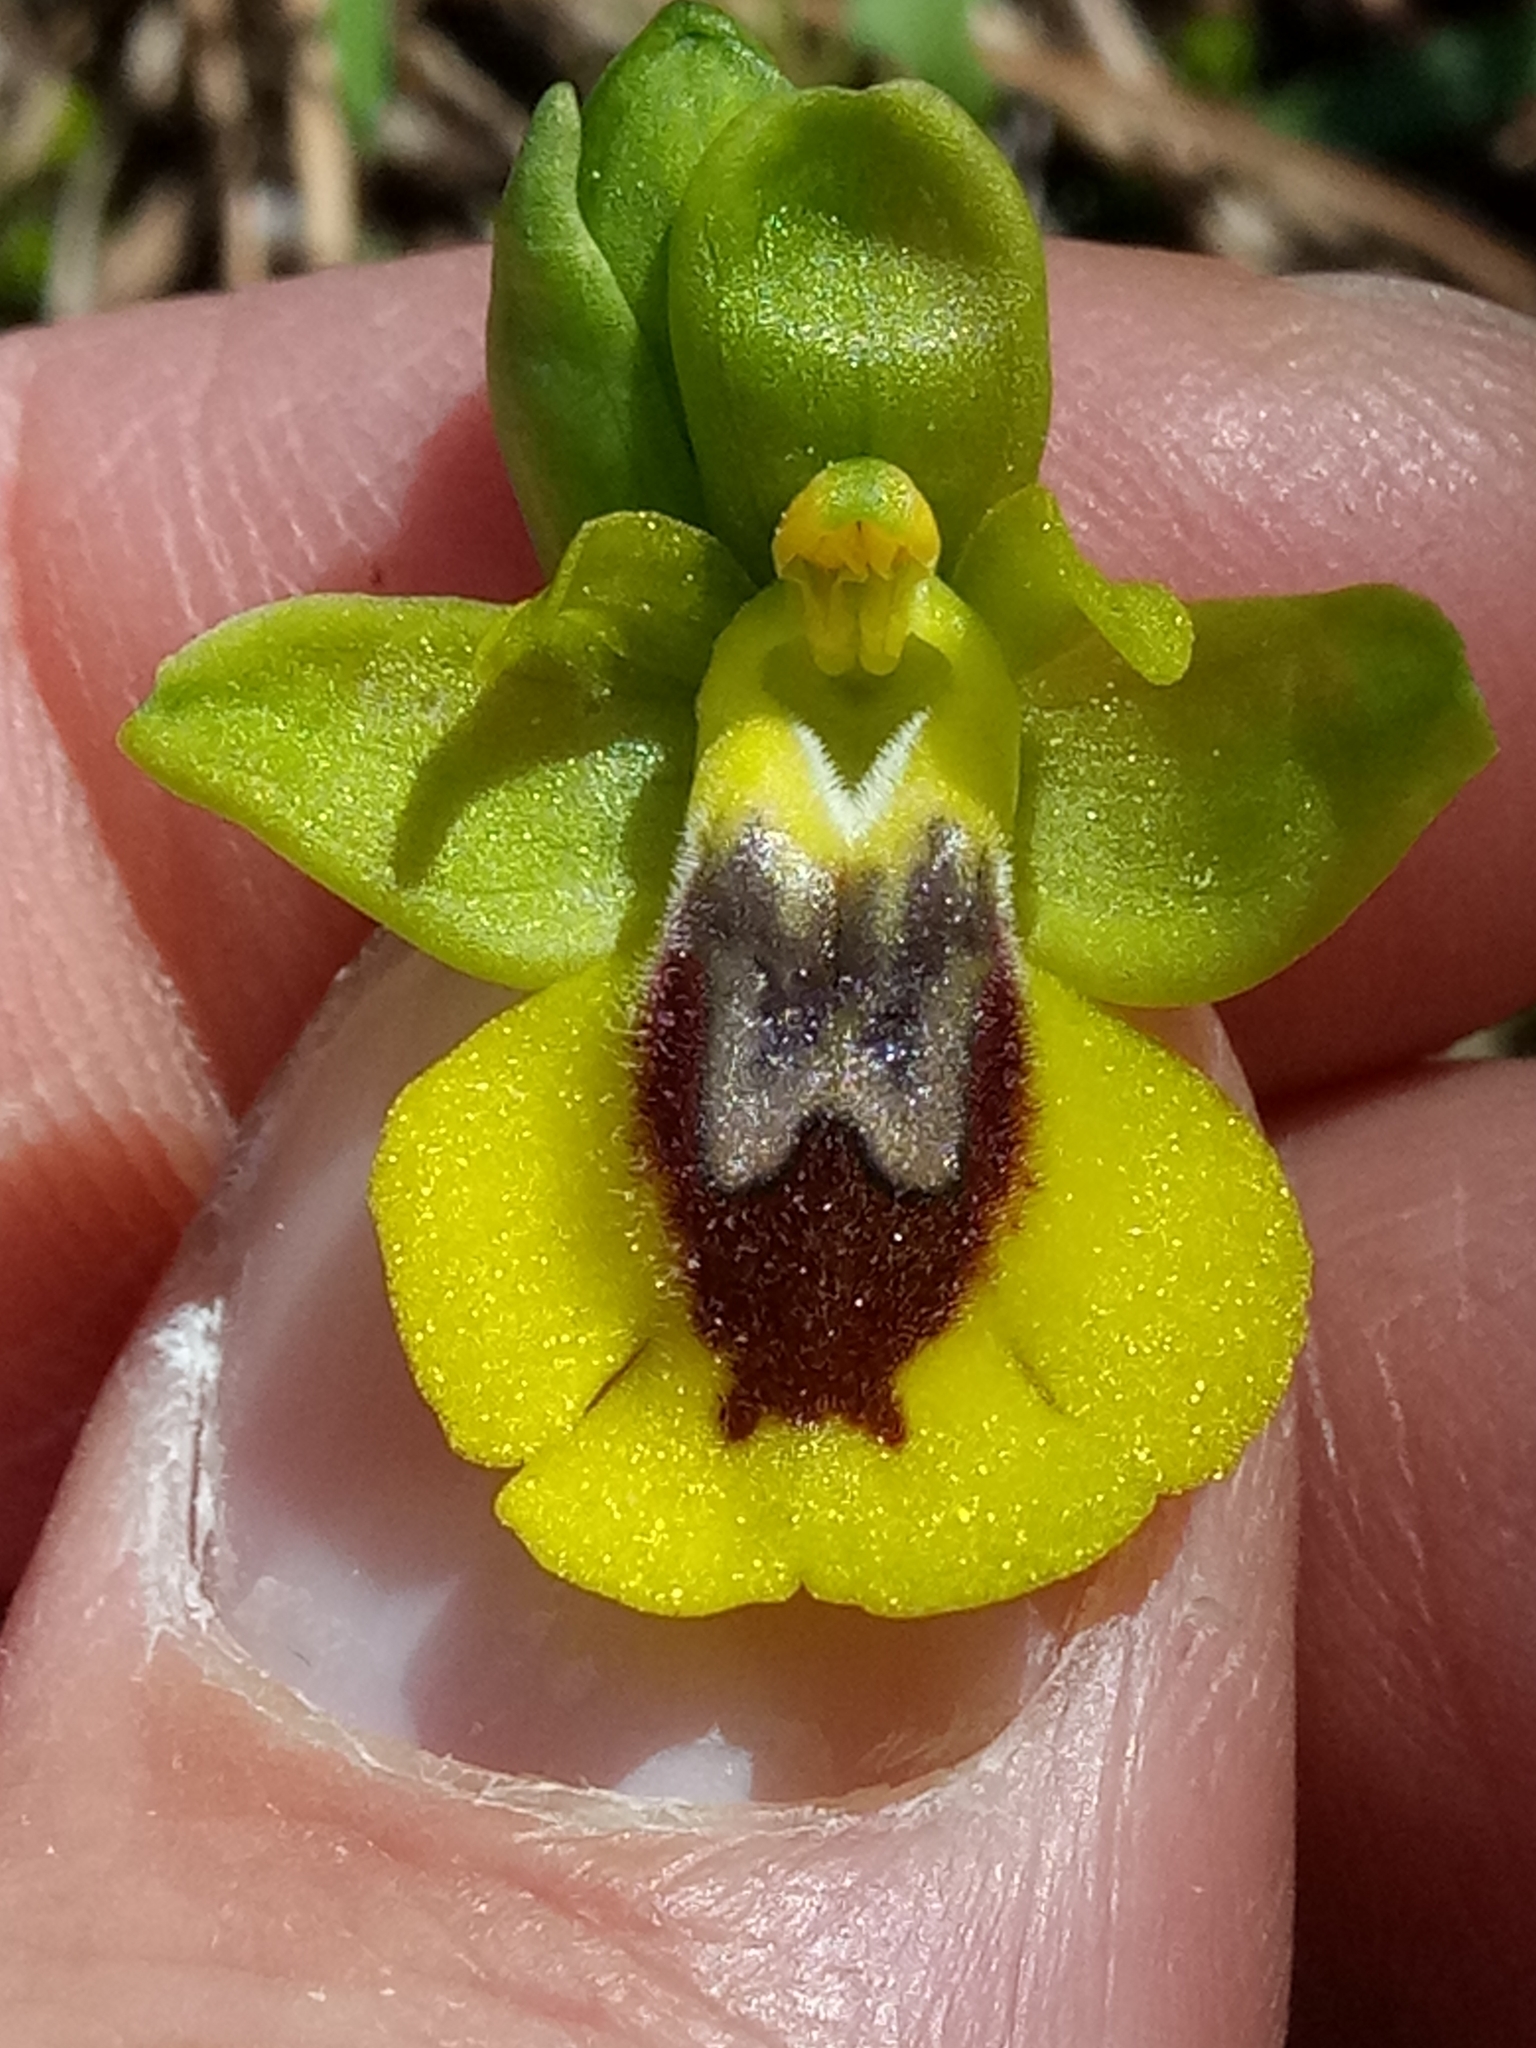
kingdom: Plantae
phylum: Tracheophyta
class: Liliopsida
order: Asparagales
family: Orchidaceae
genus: Ophrys
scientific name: Ophrys lutea
